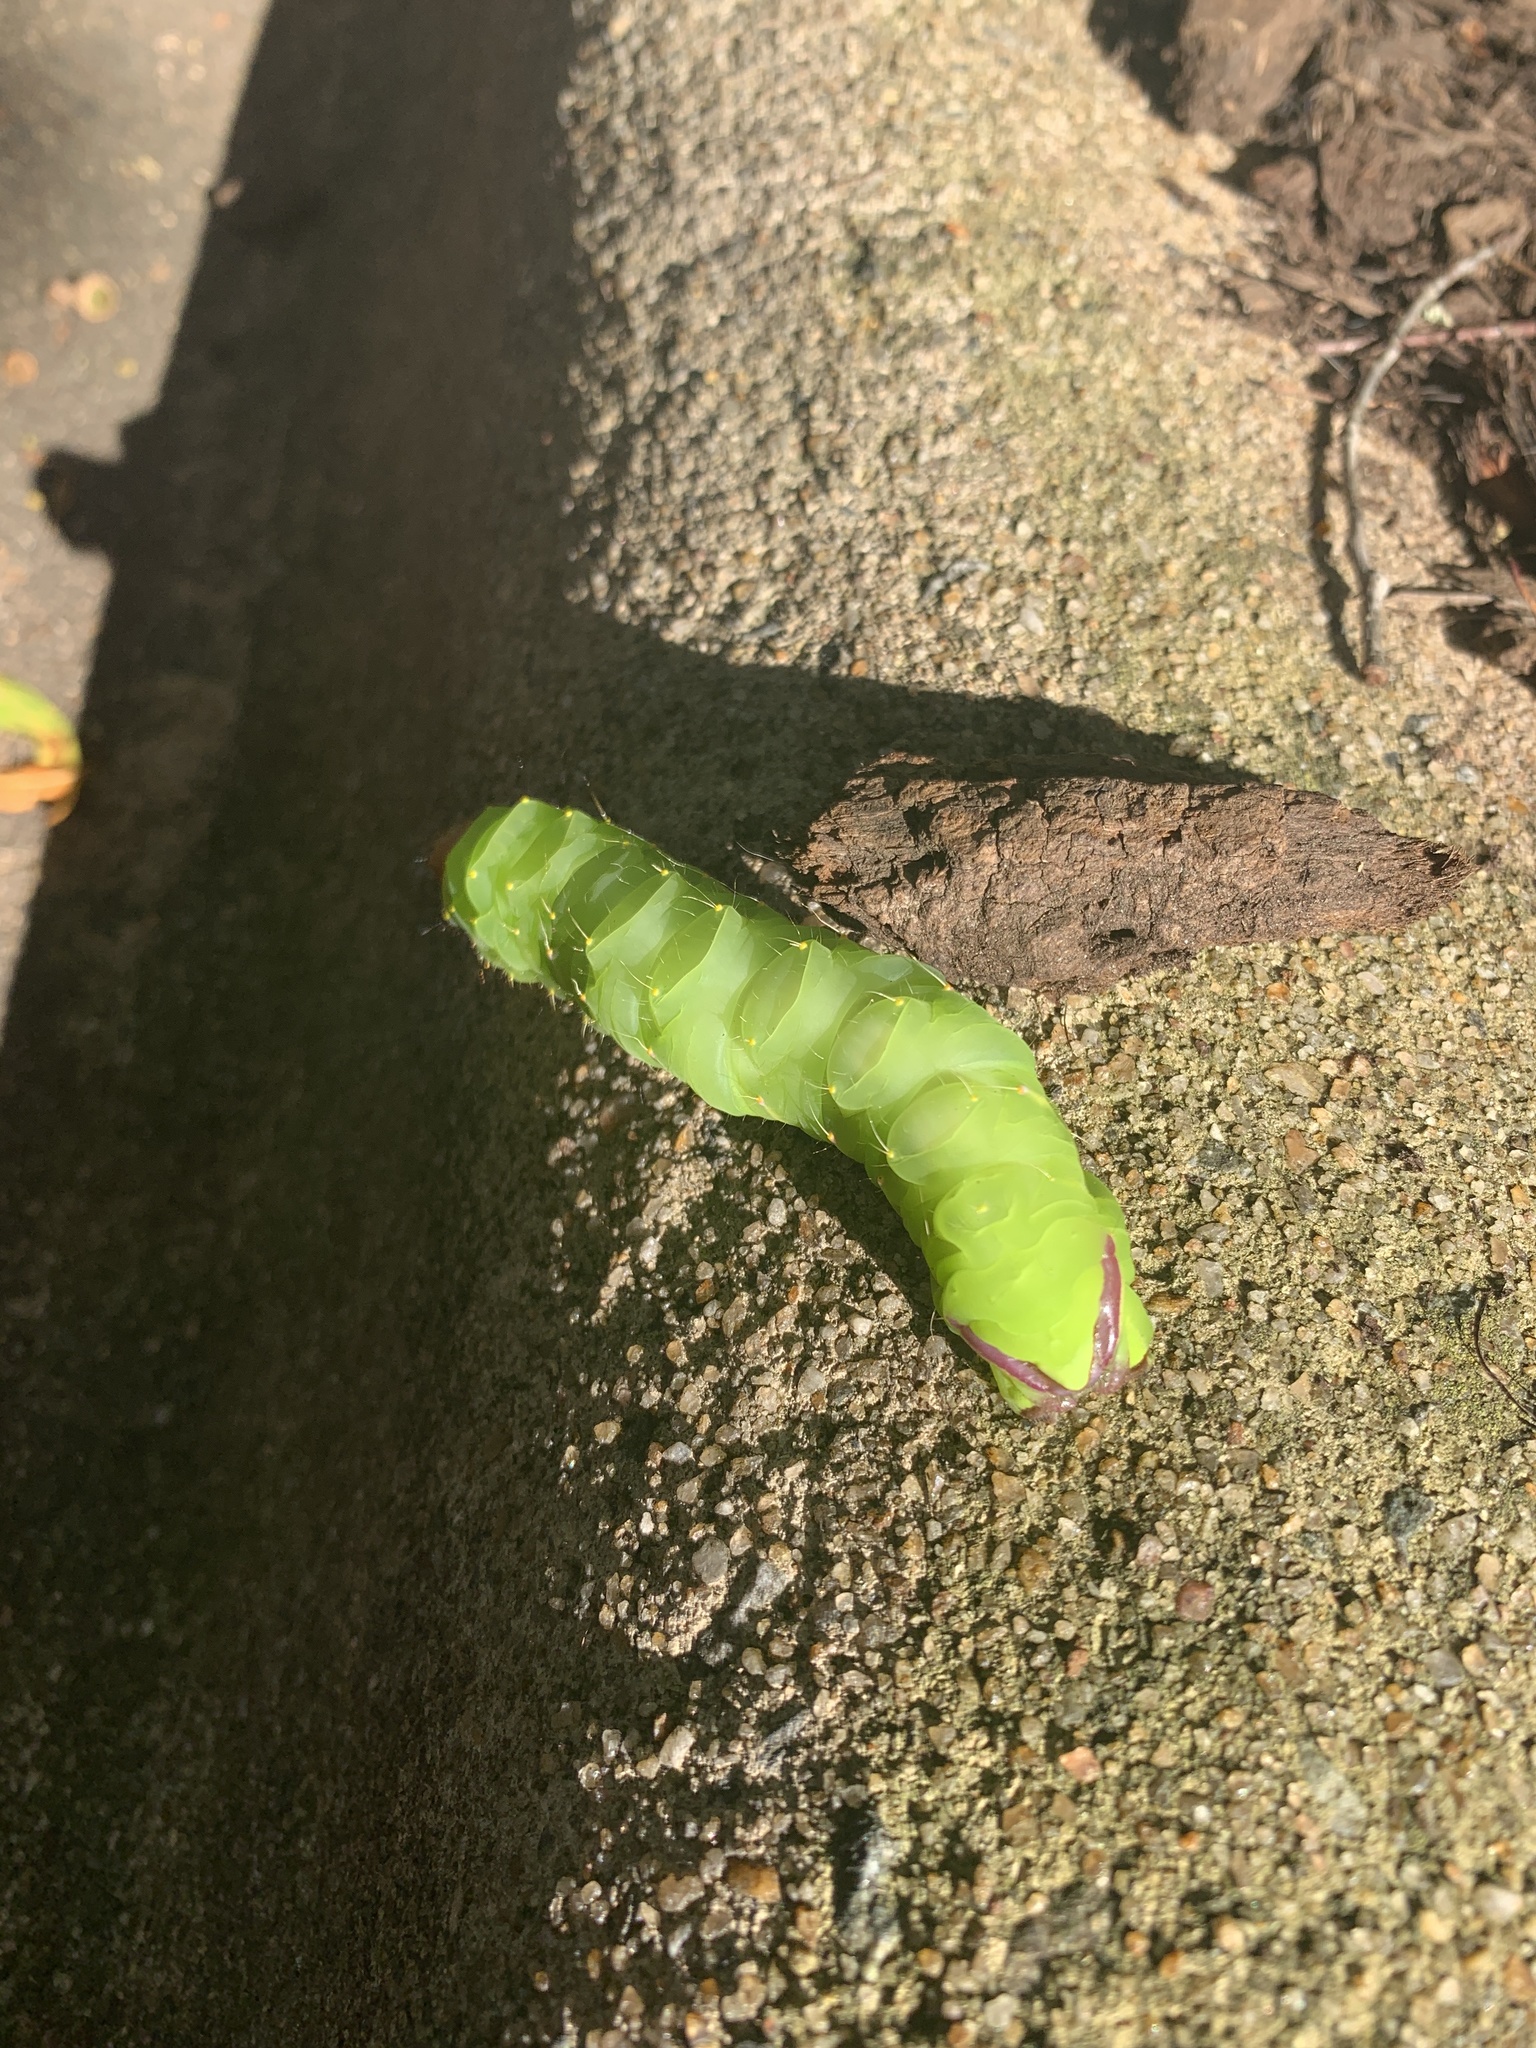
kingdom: Animalia
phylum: Arthropoda
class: Insecta
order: Lepidoptera
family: Saturniidae
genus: Antheraea
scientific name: Antheraea polyphemus
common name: Polyphemus moth
